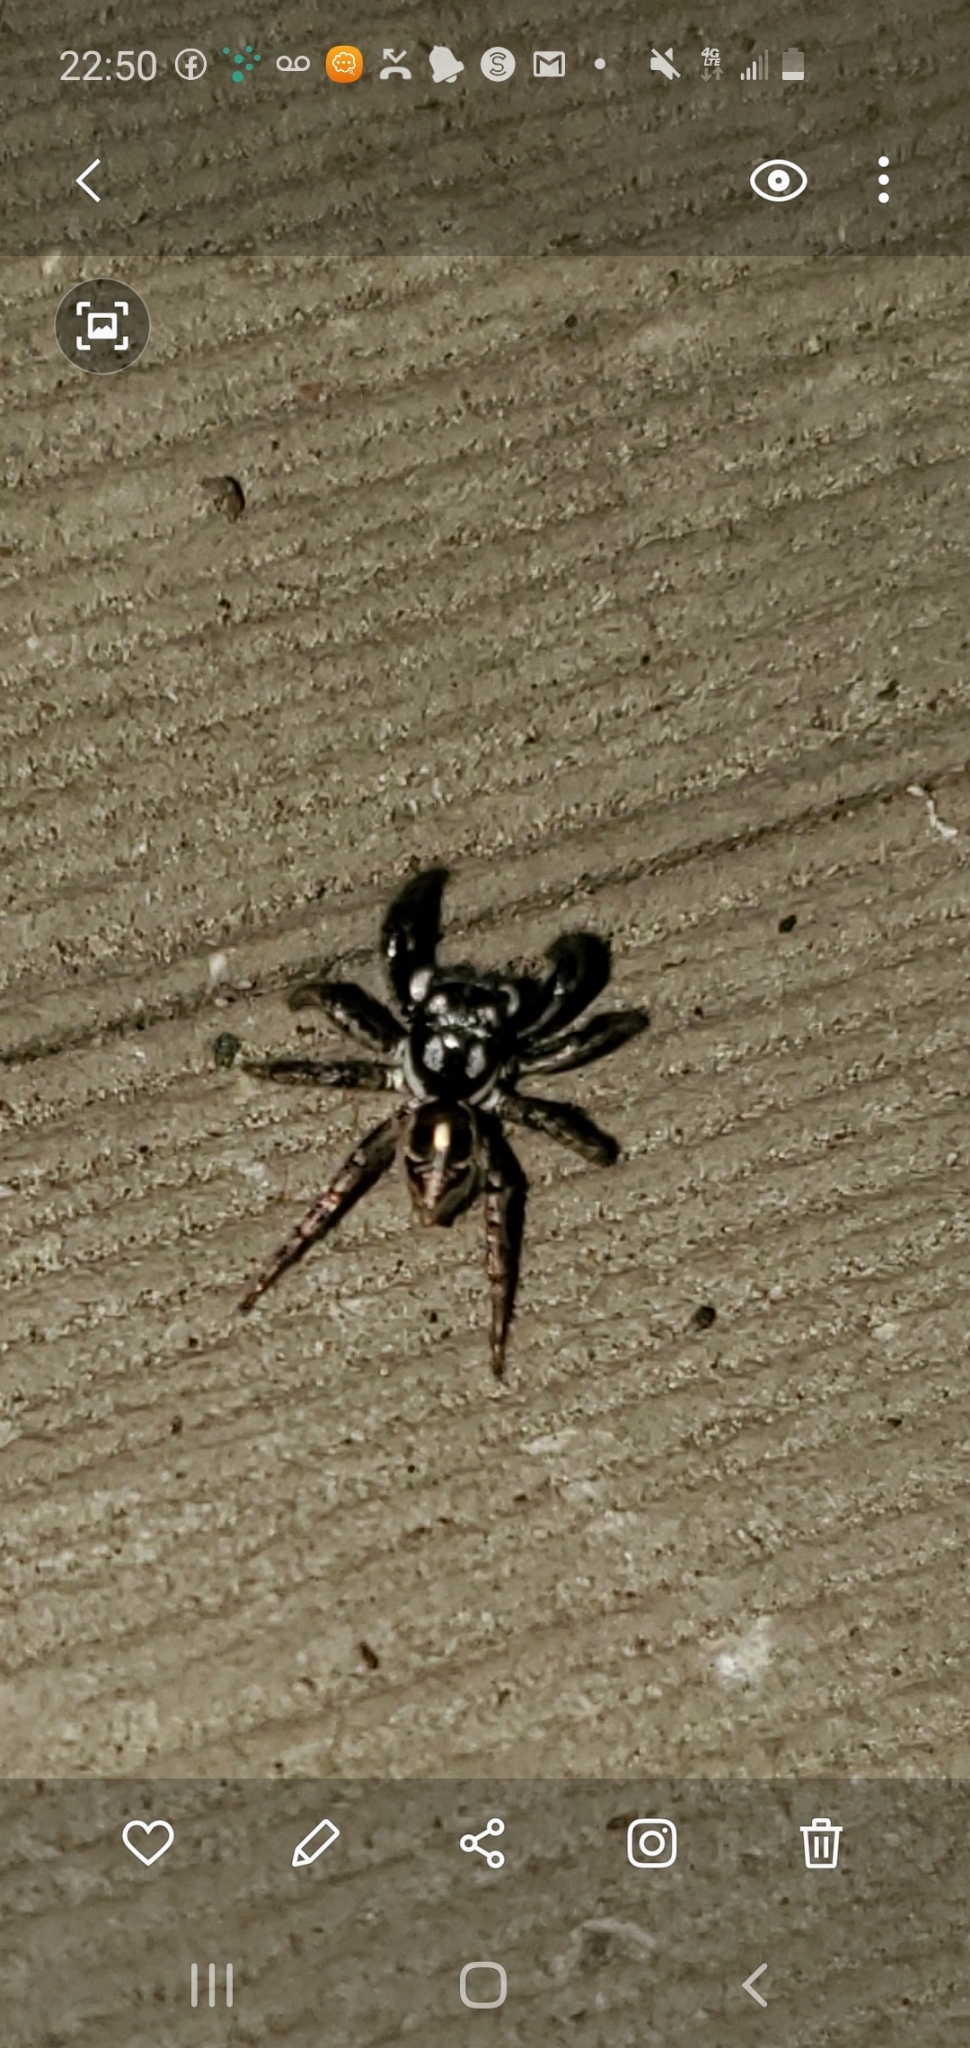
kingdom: Animalia
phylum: Arthropoda
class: Arachnida
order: Araneae
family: Salticidae
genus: Anasaitis
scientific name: Anasaitis canosa
